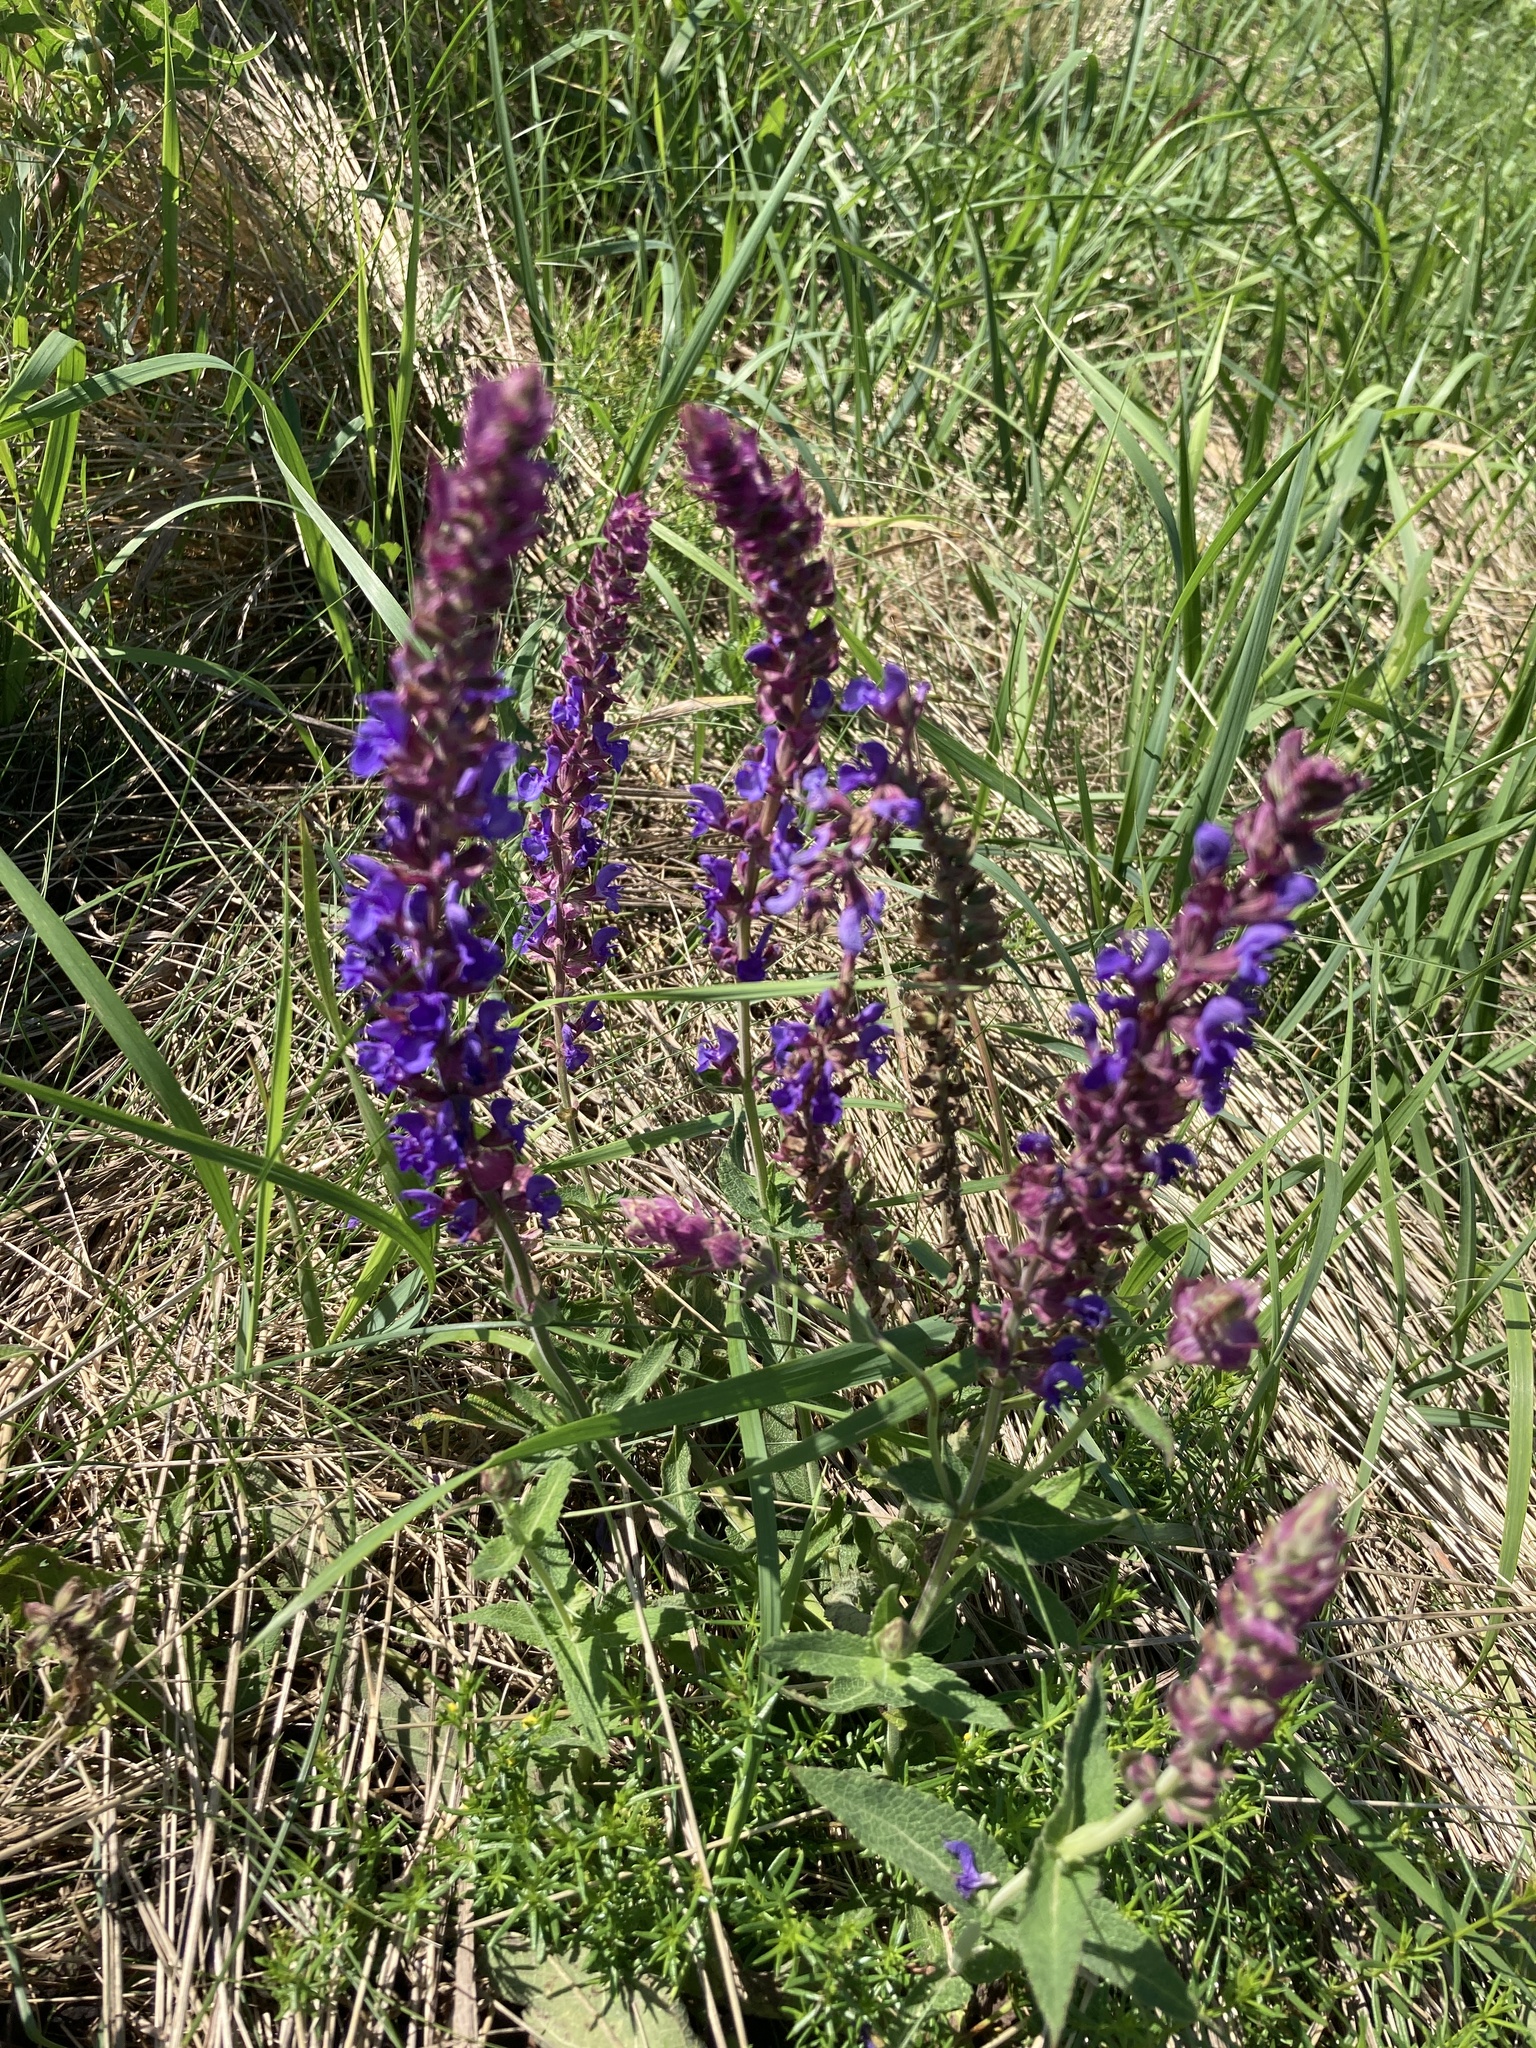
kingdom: Plantae
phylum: Tracheophyta
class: Magnoliopsida
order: Lamiales
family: Lamiaceae
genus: Salvia
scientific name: Salvia nemorosa
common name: Balkan clary
